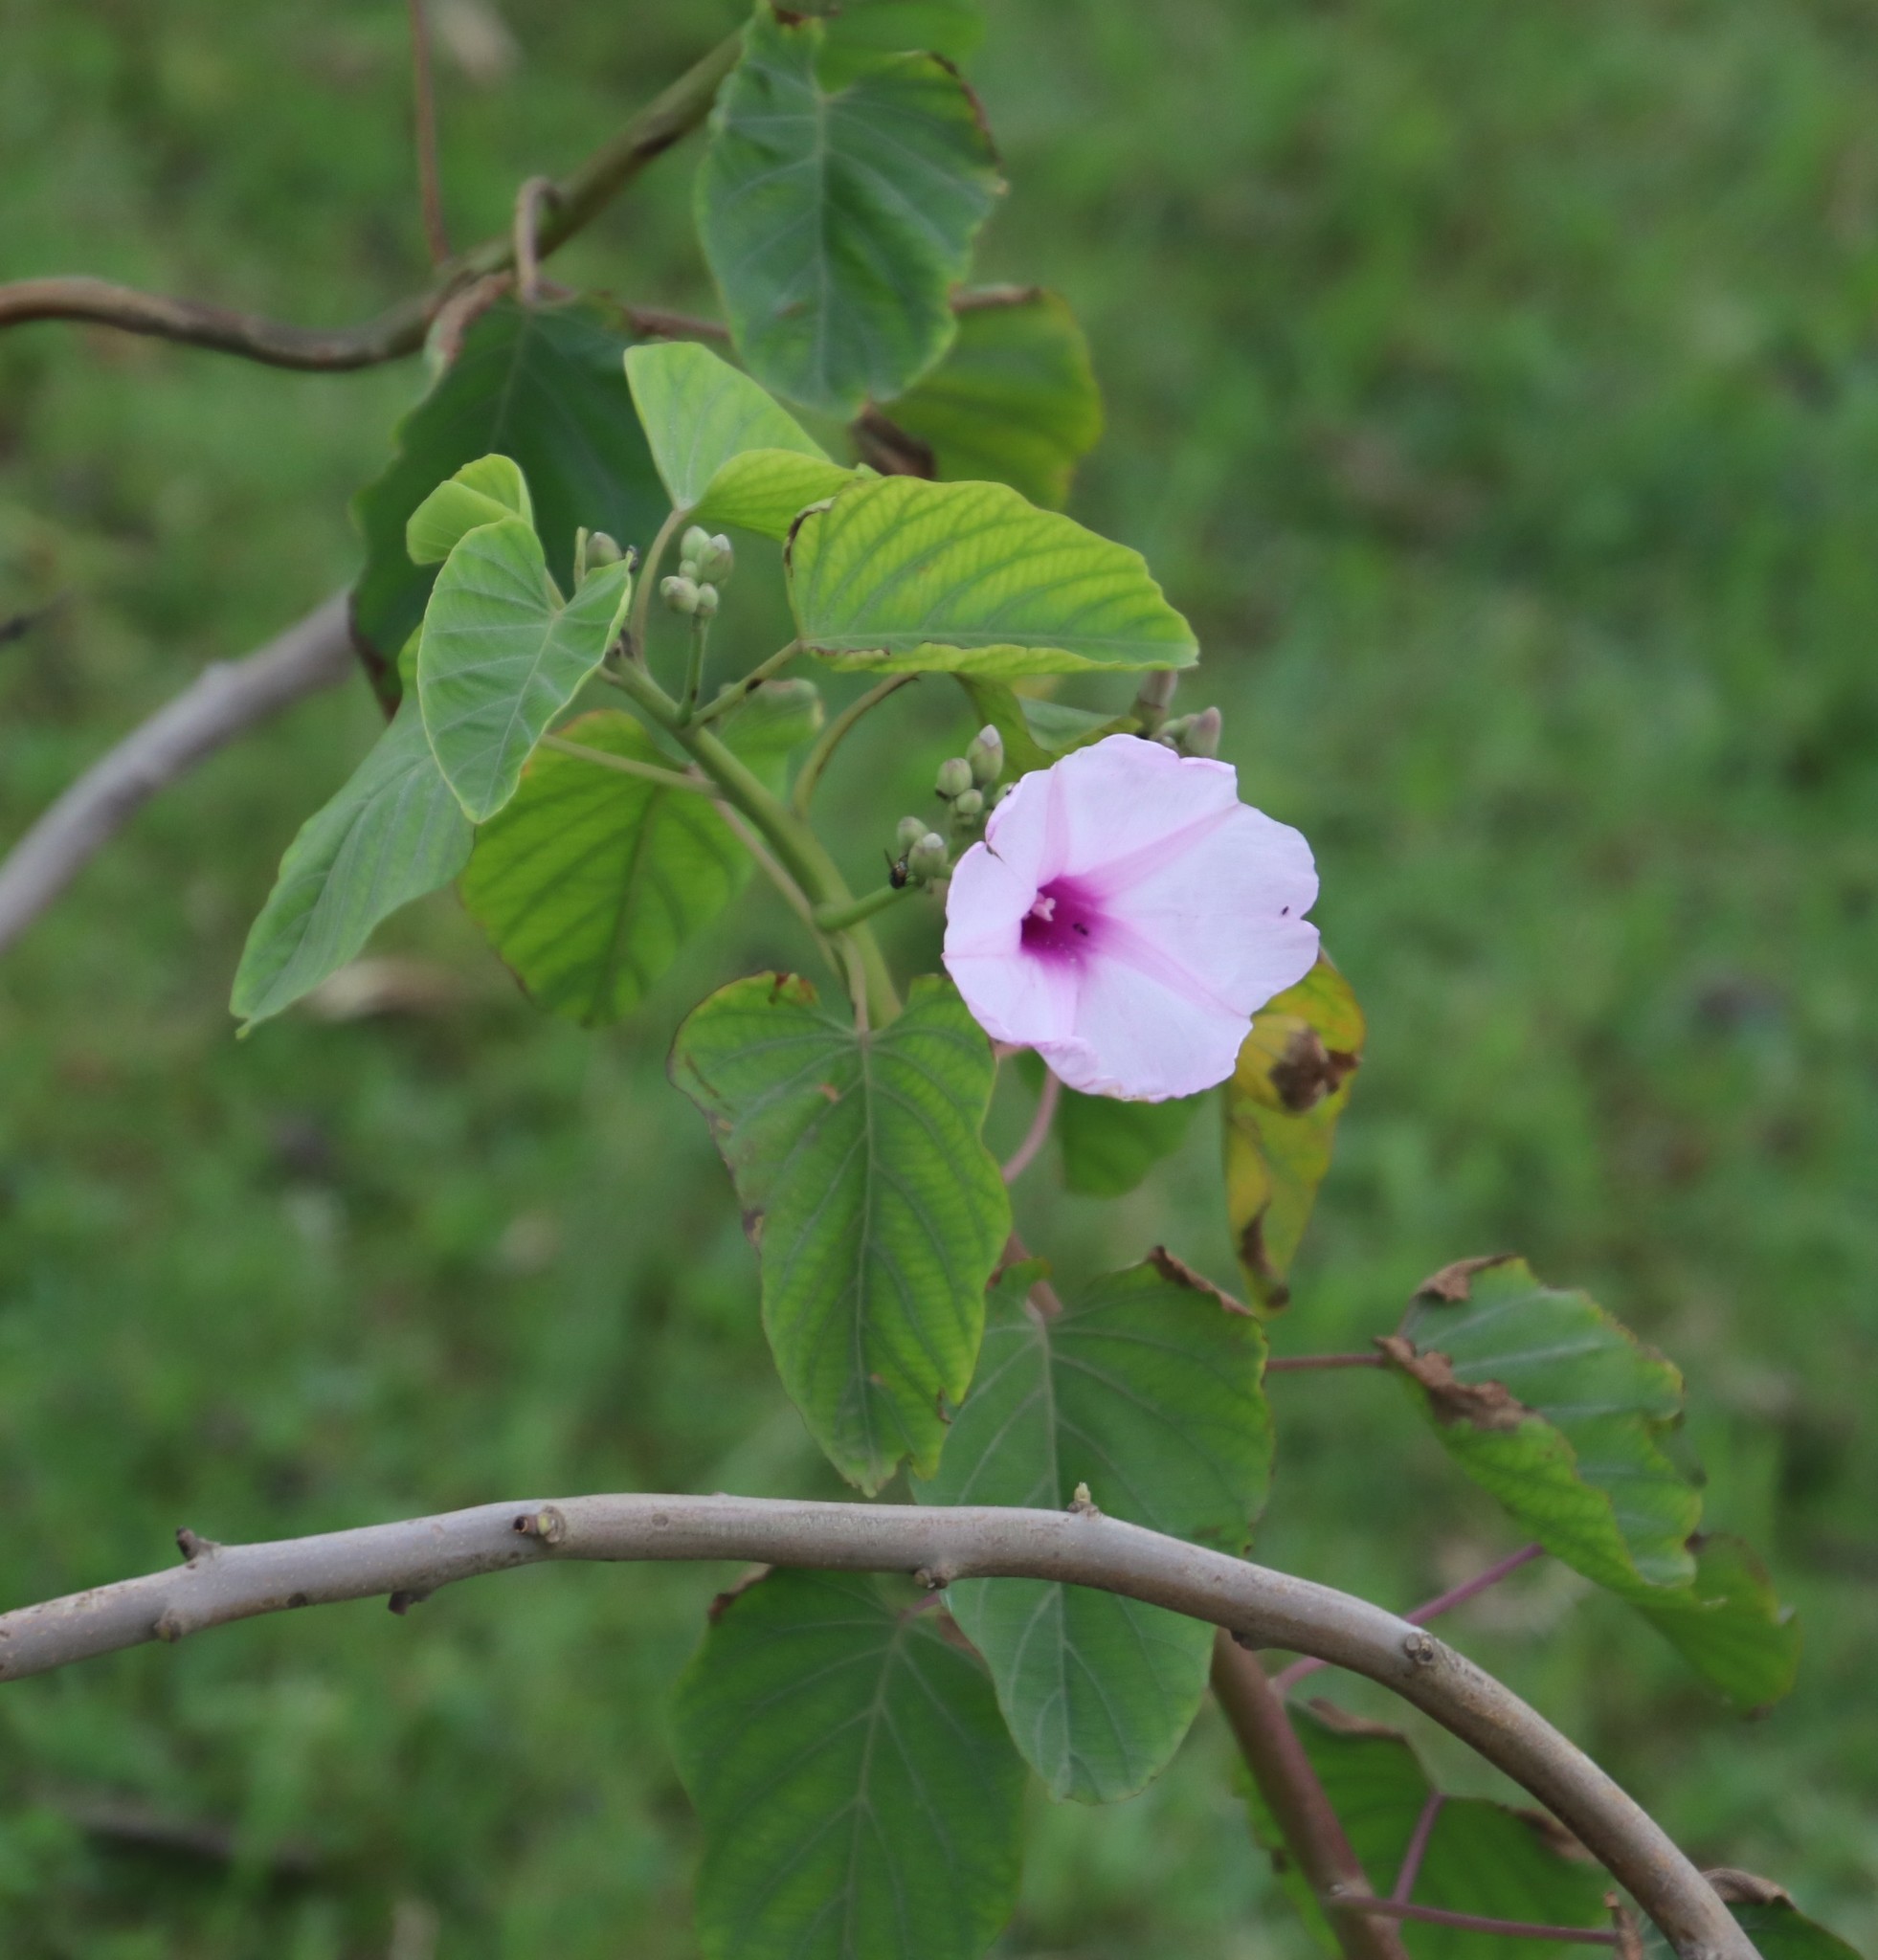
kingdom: Plantae
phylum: Tracheophyta
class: Magnoliopsida
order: Solanales
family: Convolvulaceae
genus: Ipomoea
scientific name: Ipomoea carnea
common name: Morning-glory
